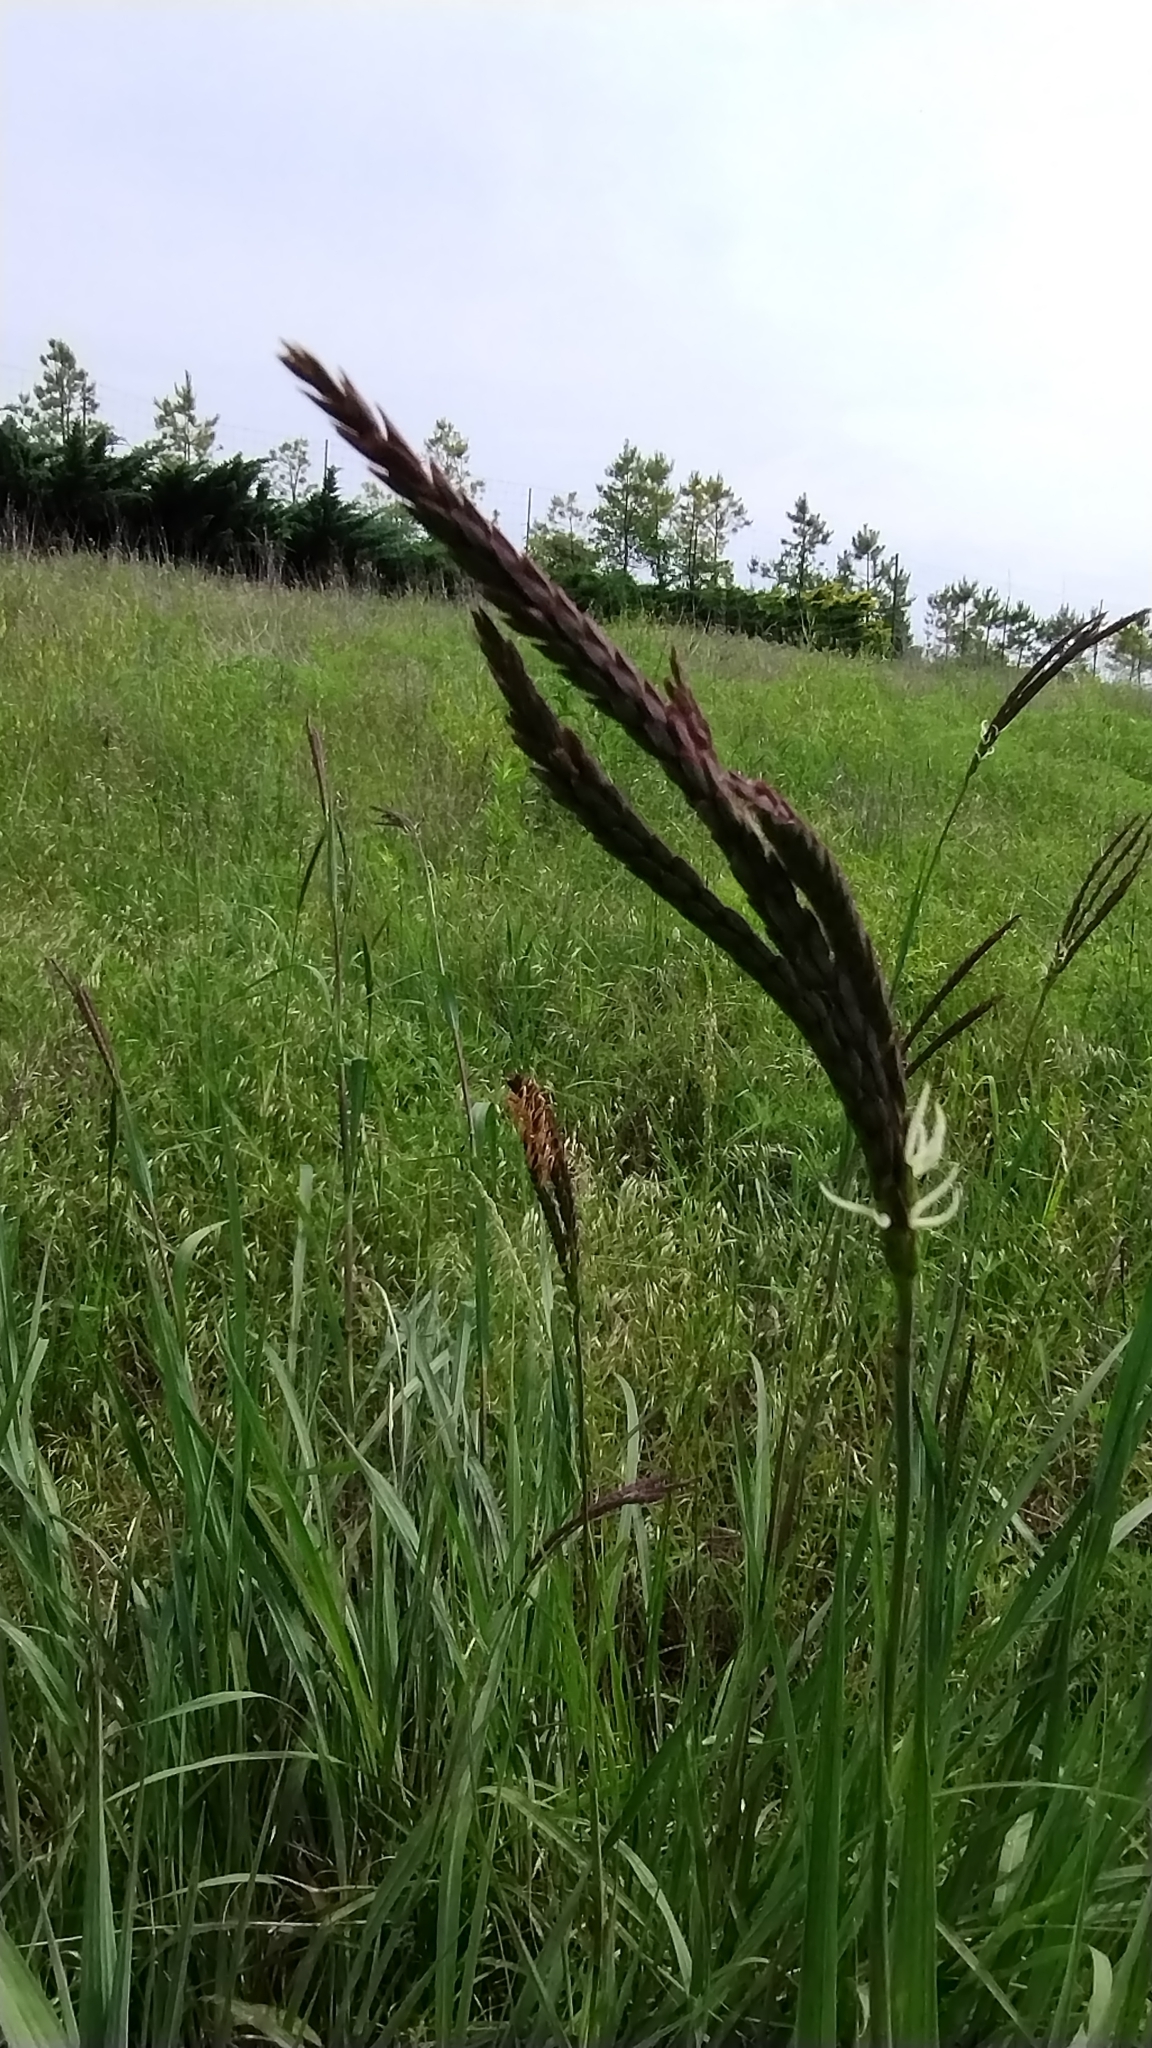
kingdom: Plantae
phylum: Tracheophyta
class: Liliopsida
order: Poales
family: Poaceae
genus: Tripsacum
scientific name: Tripsacum dactyloides
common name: Buffalo-grass
